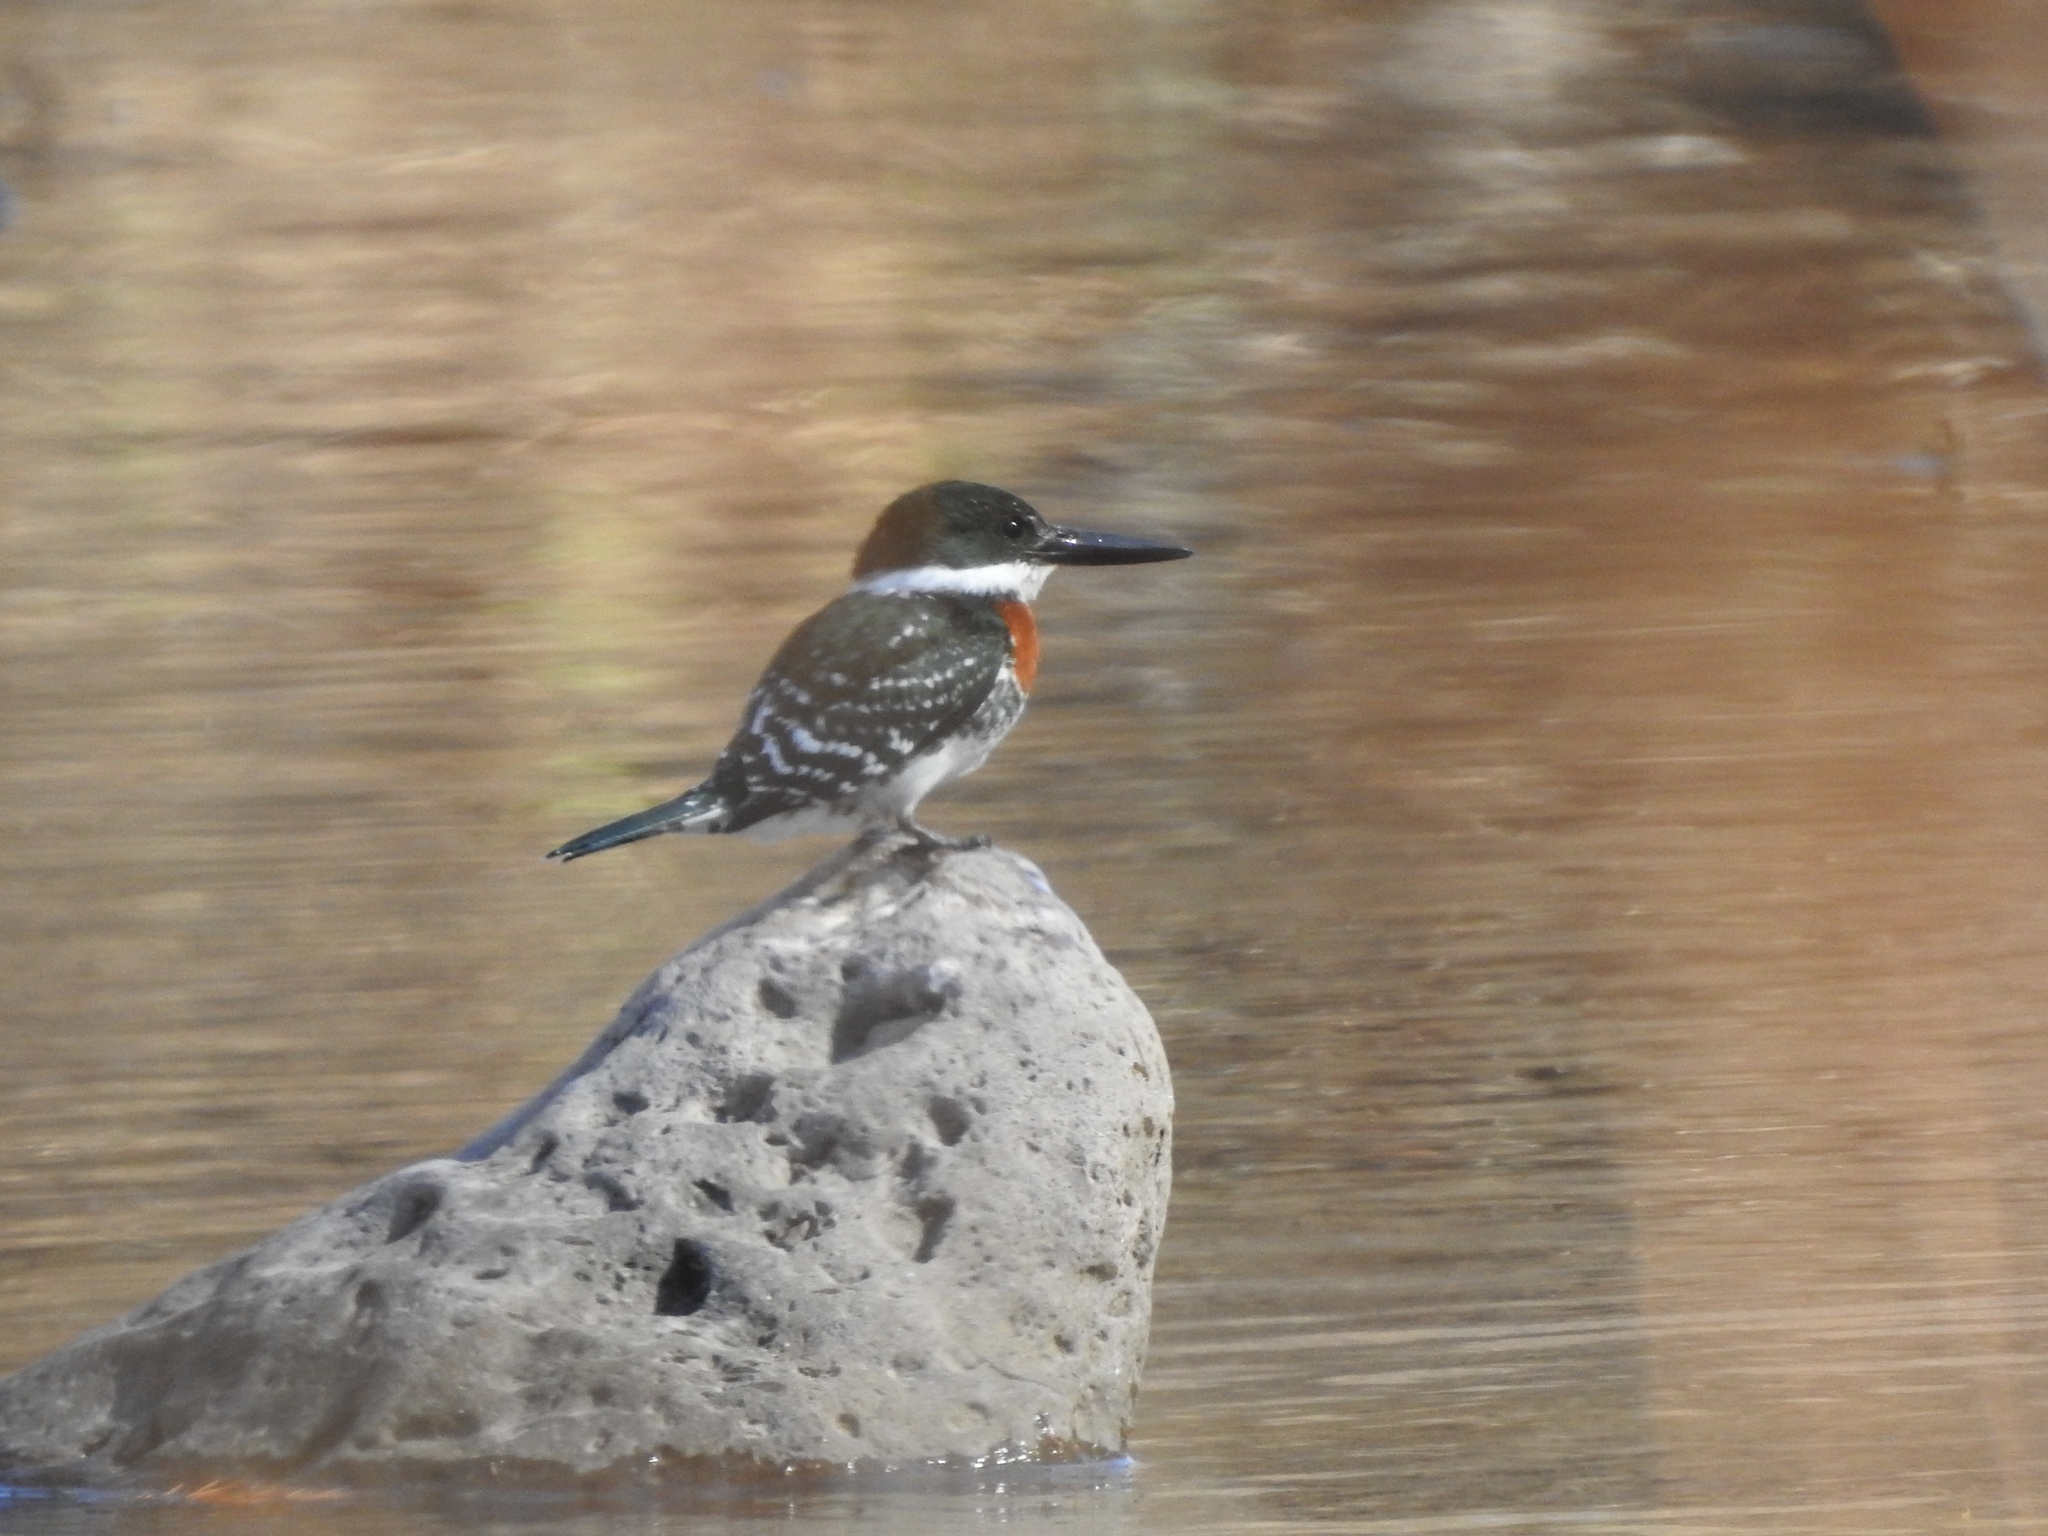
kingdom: Animalia
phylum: Chordata
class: Aves
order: Coraciiformes
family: Alcedinidae
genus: Chloroceryle
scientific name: Chloroceryle americana
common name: Green kingfisher
